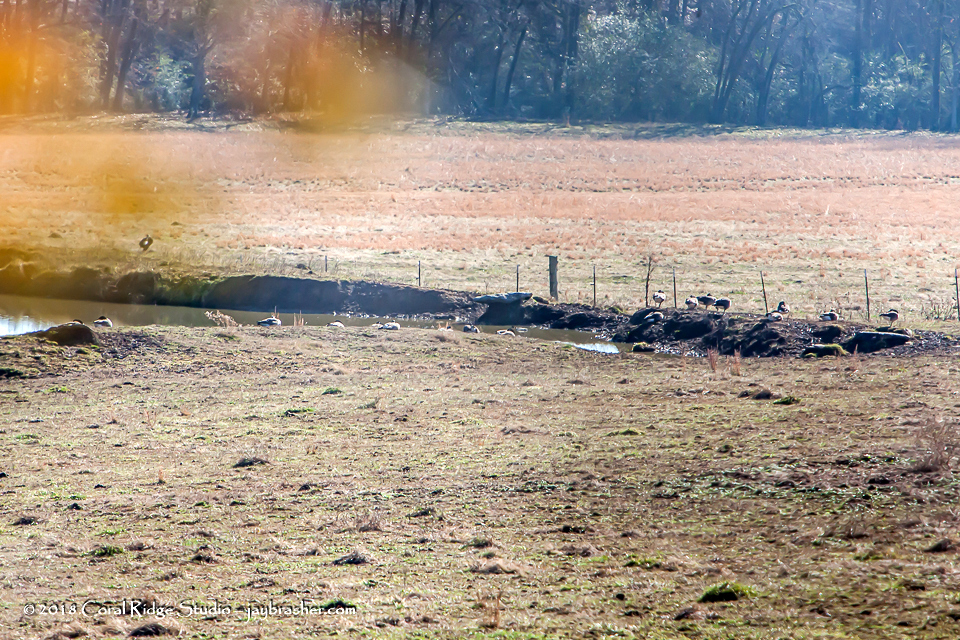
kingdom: Animalia
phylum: Chordata
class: Aves
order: Anseriformes
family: Anatidae
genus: Branta
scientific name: Branta canadensis
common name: Canada goose
